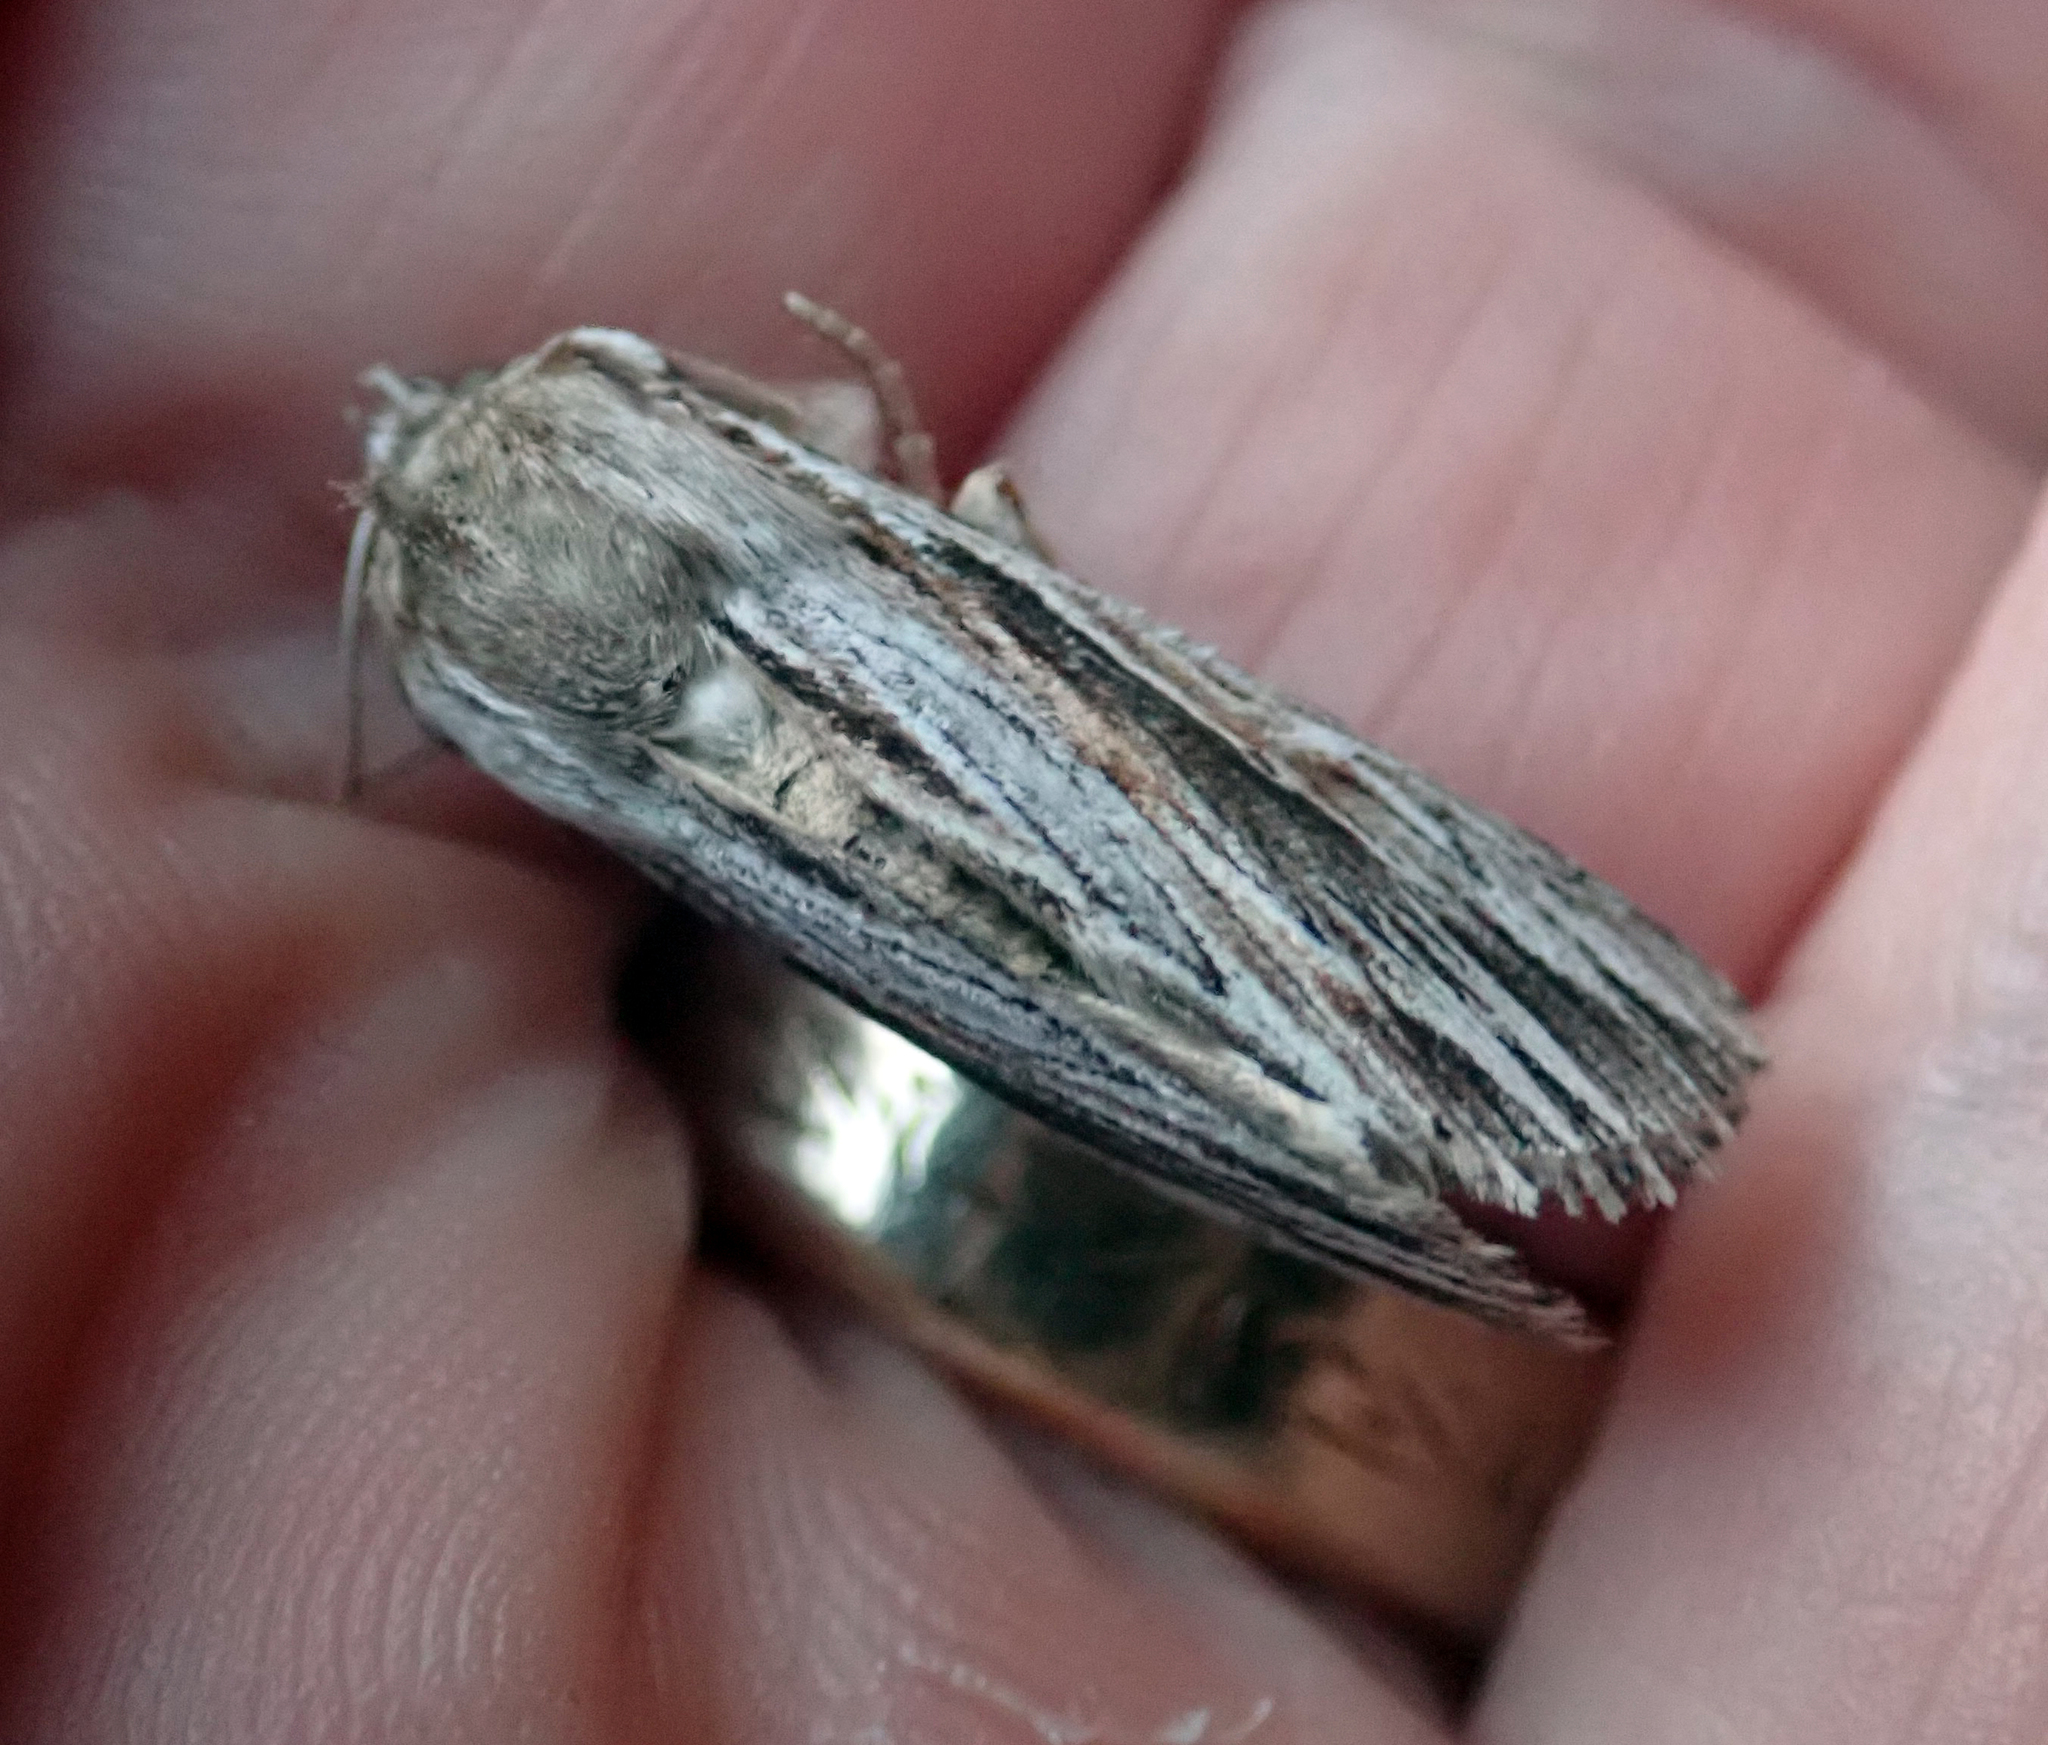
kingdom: Animalia
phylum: Arthropoda
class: Insecta
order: Lepidoptera
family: Noctuidae
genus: Persectania
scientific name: Persectania aversa
